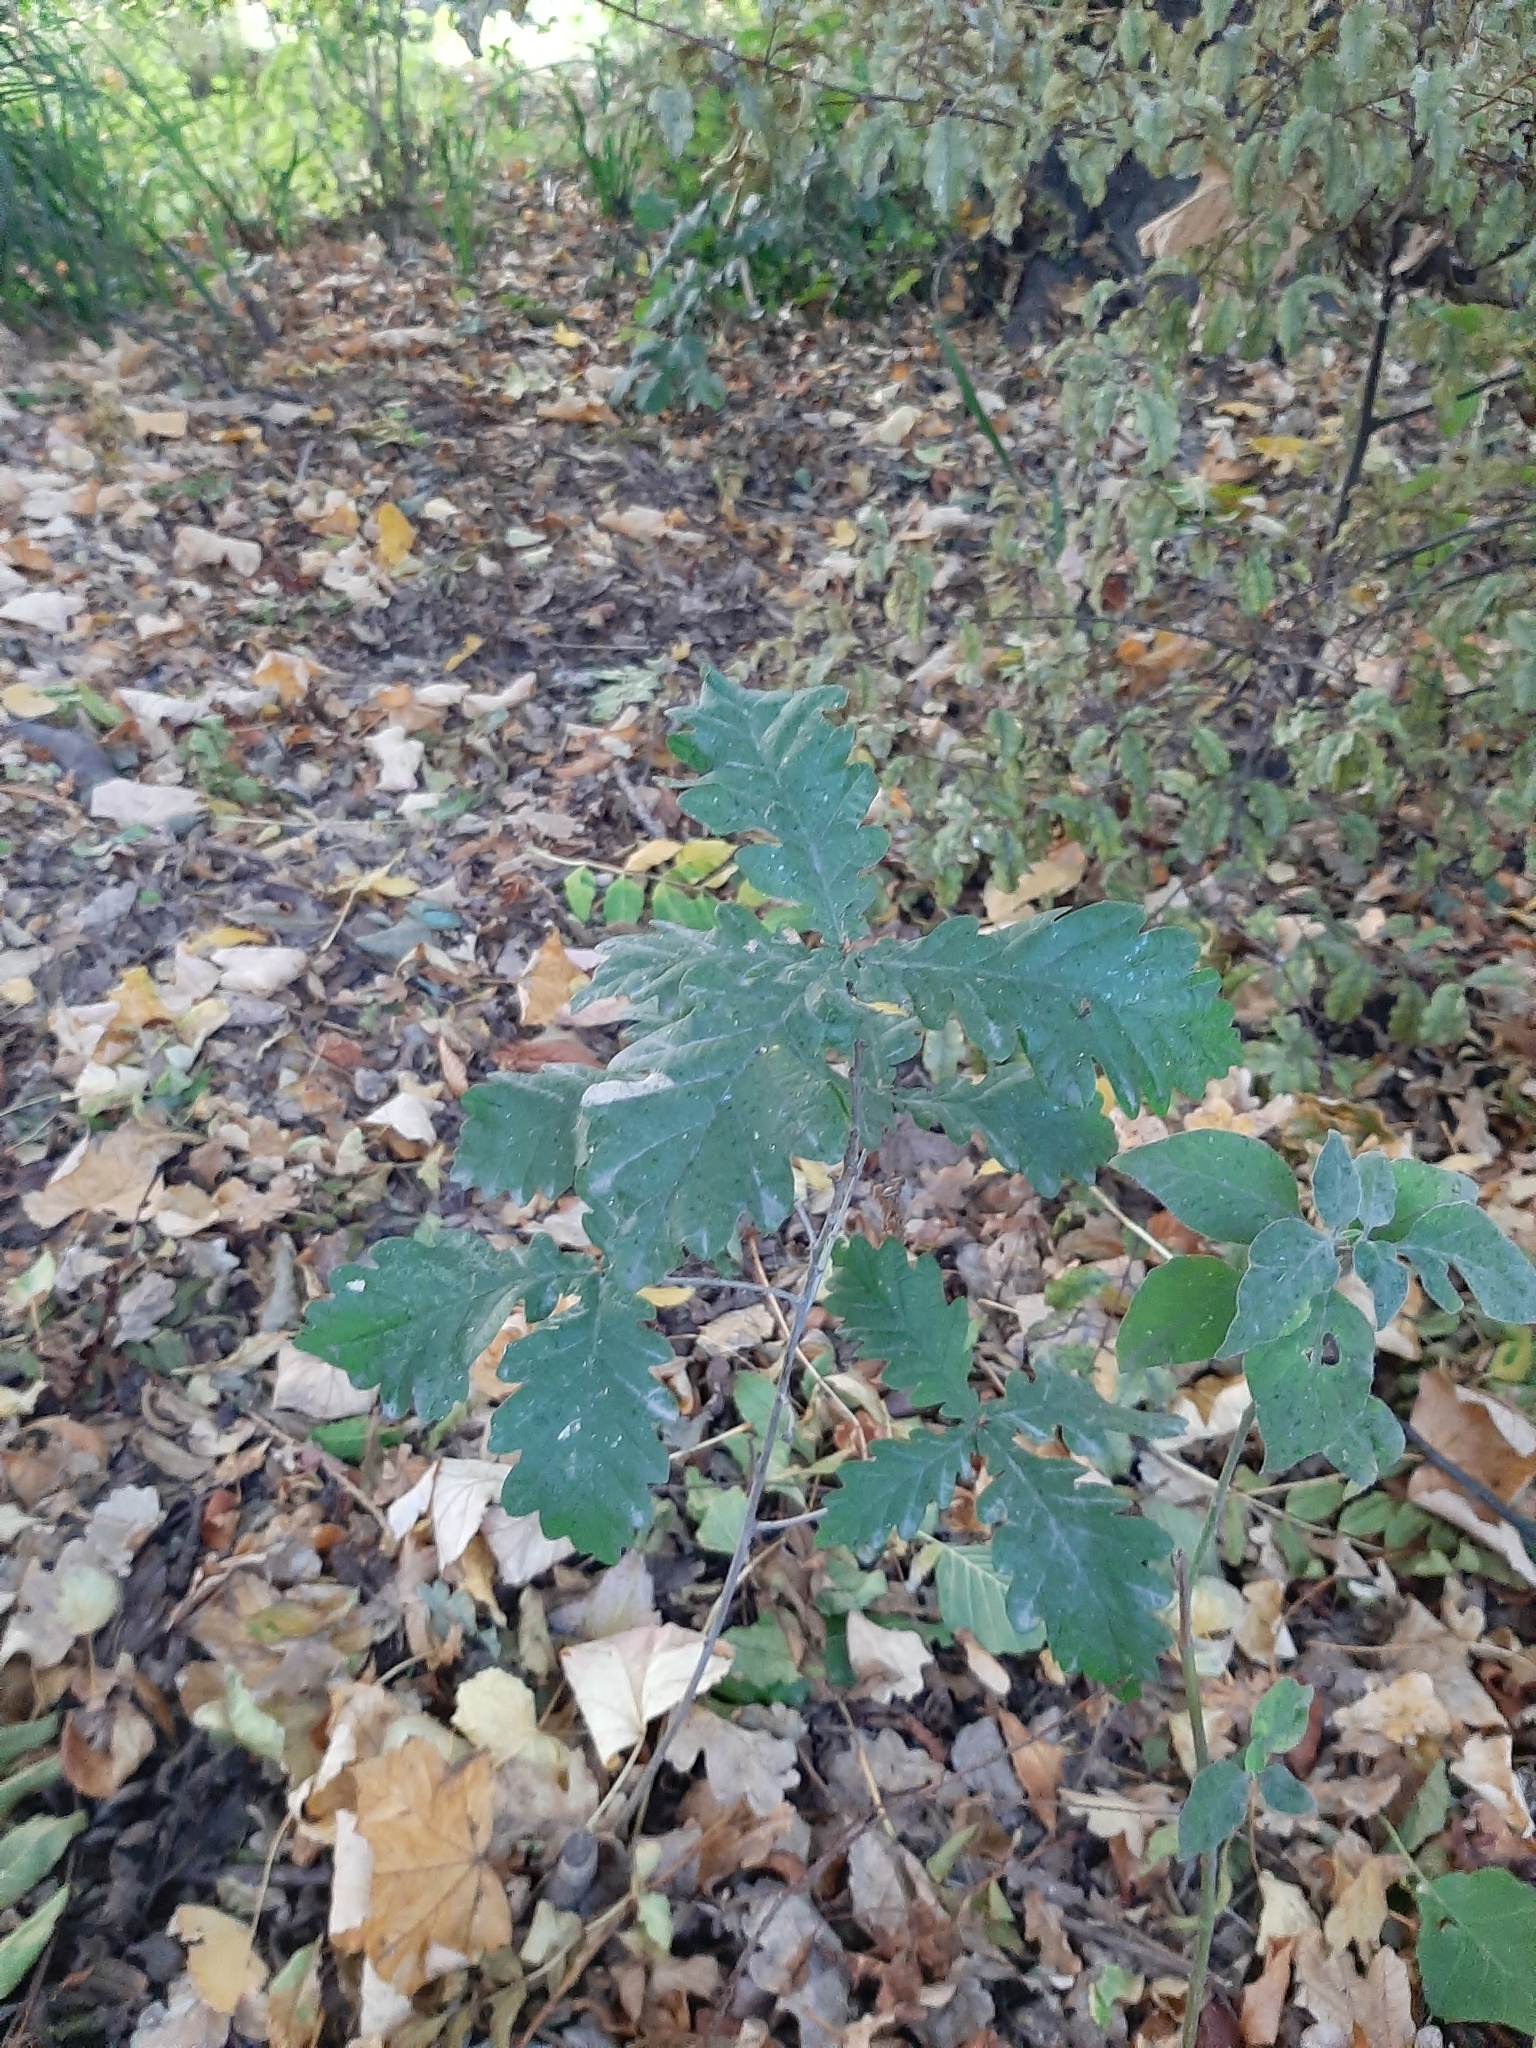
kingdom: Plantae
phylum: Tracheophyta
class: Magnoliopsida
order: Fagales
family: Fagaceae
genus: Quercus
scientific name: Quercus robur
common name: Pedunculate oak
